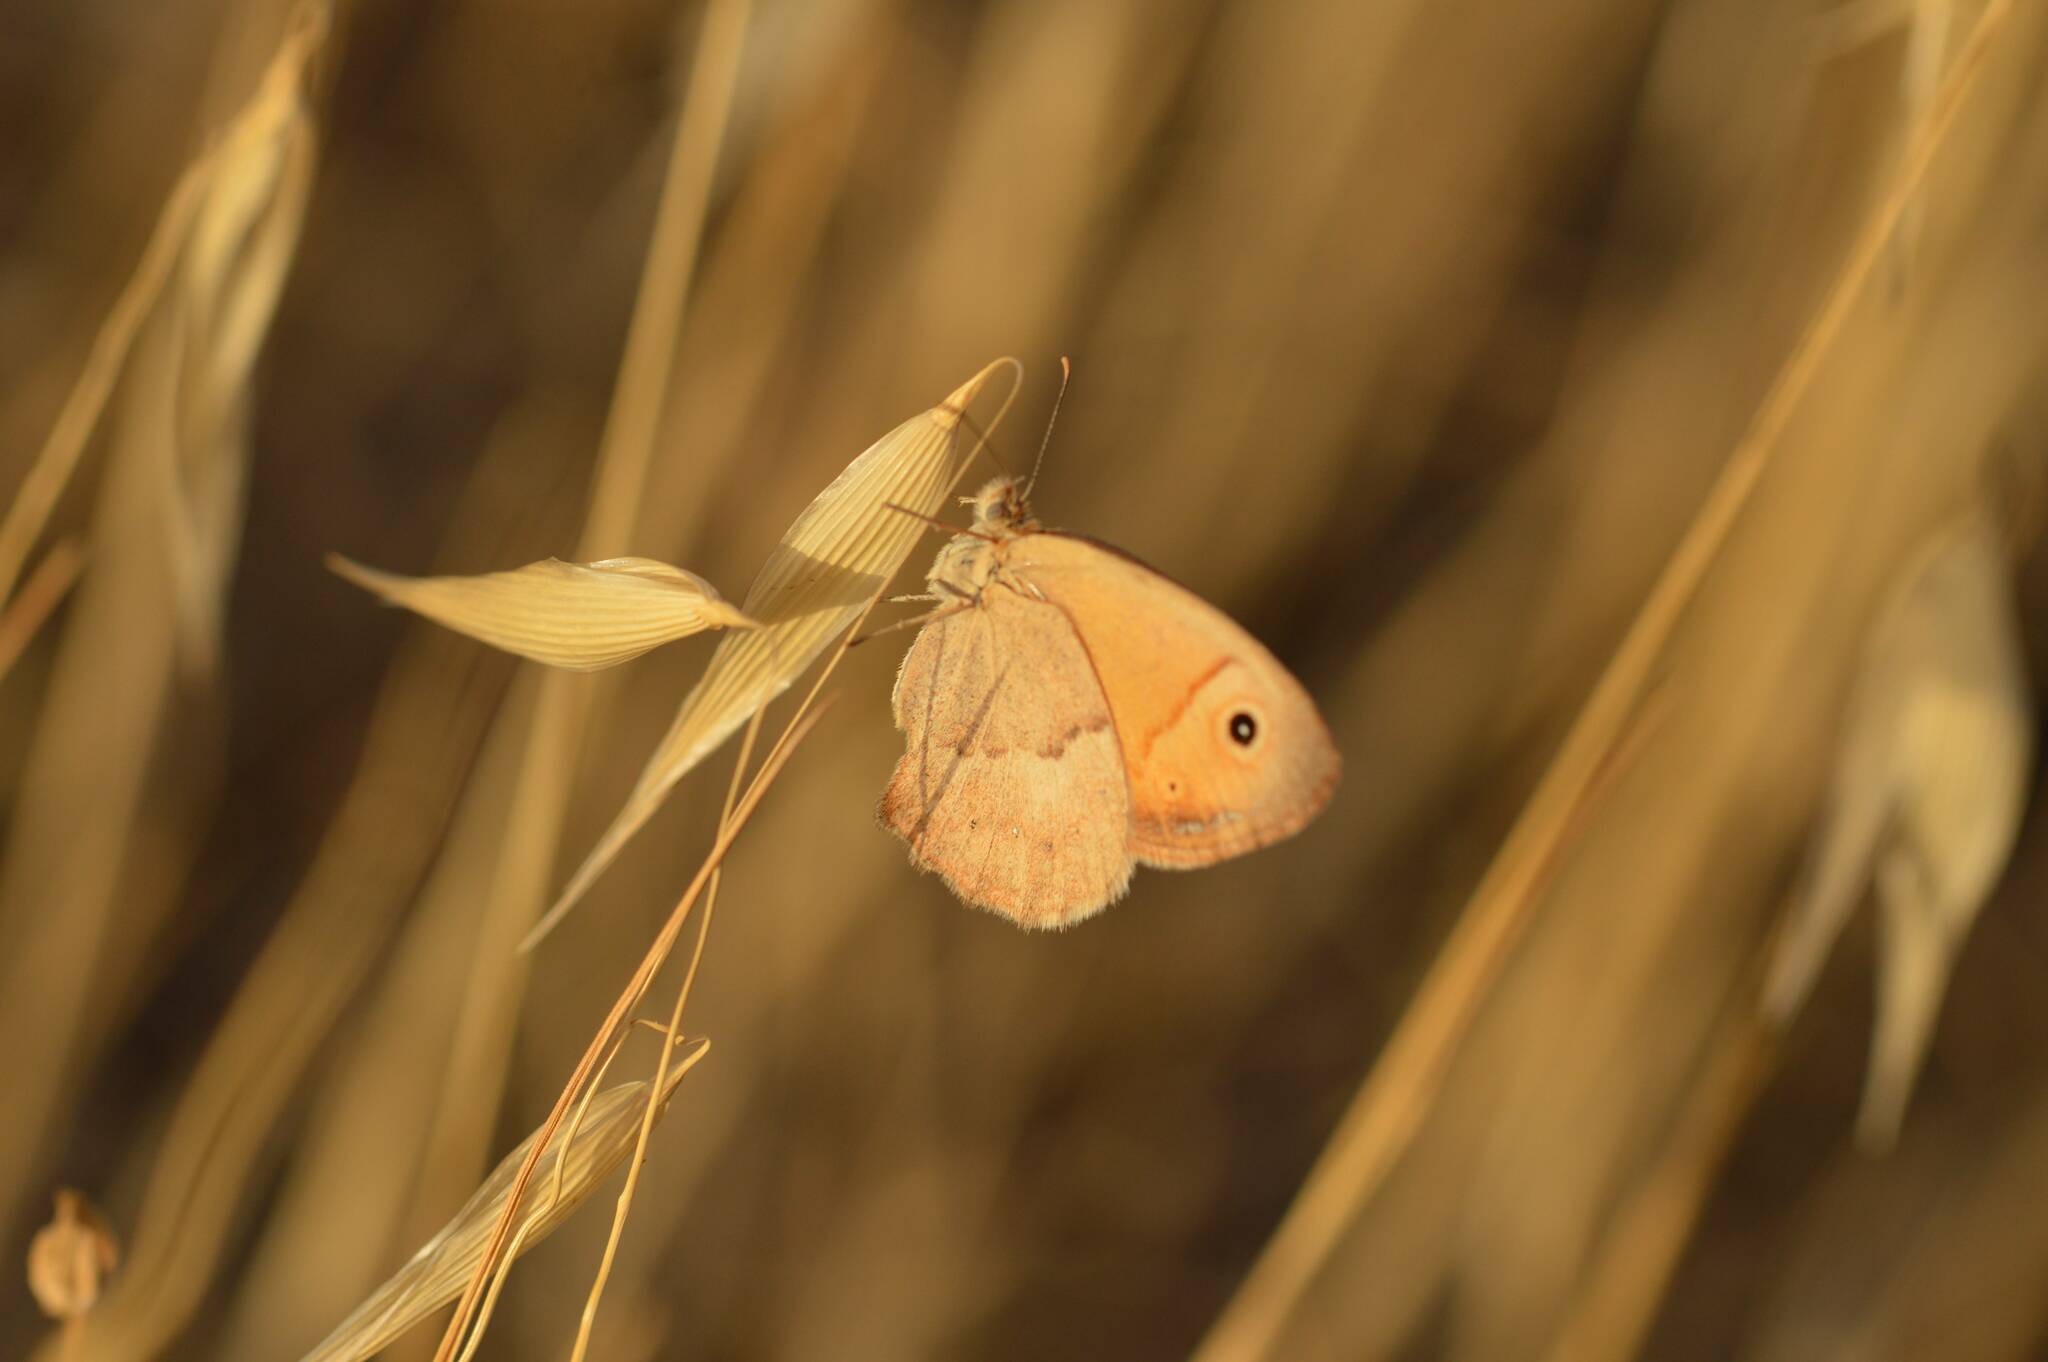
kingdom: Animalia
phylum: Arthropoda
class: Insecta
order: Lepidoptera
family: Nymphalidae
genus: Coenonympha
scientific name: Coenonympha pamphilus
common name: Small heath
